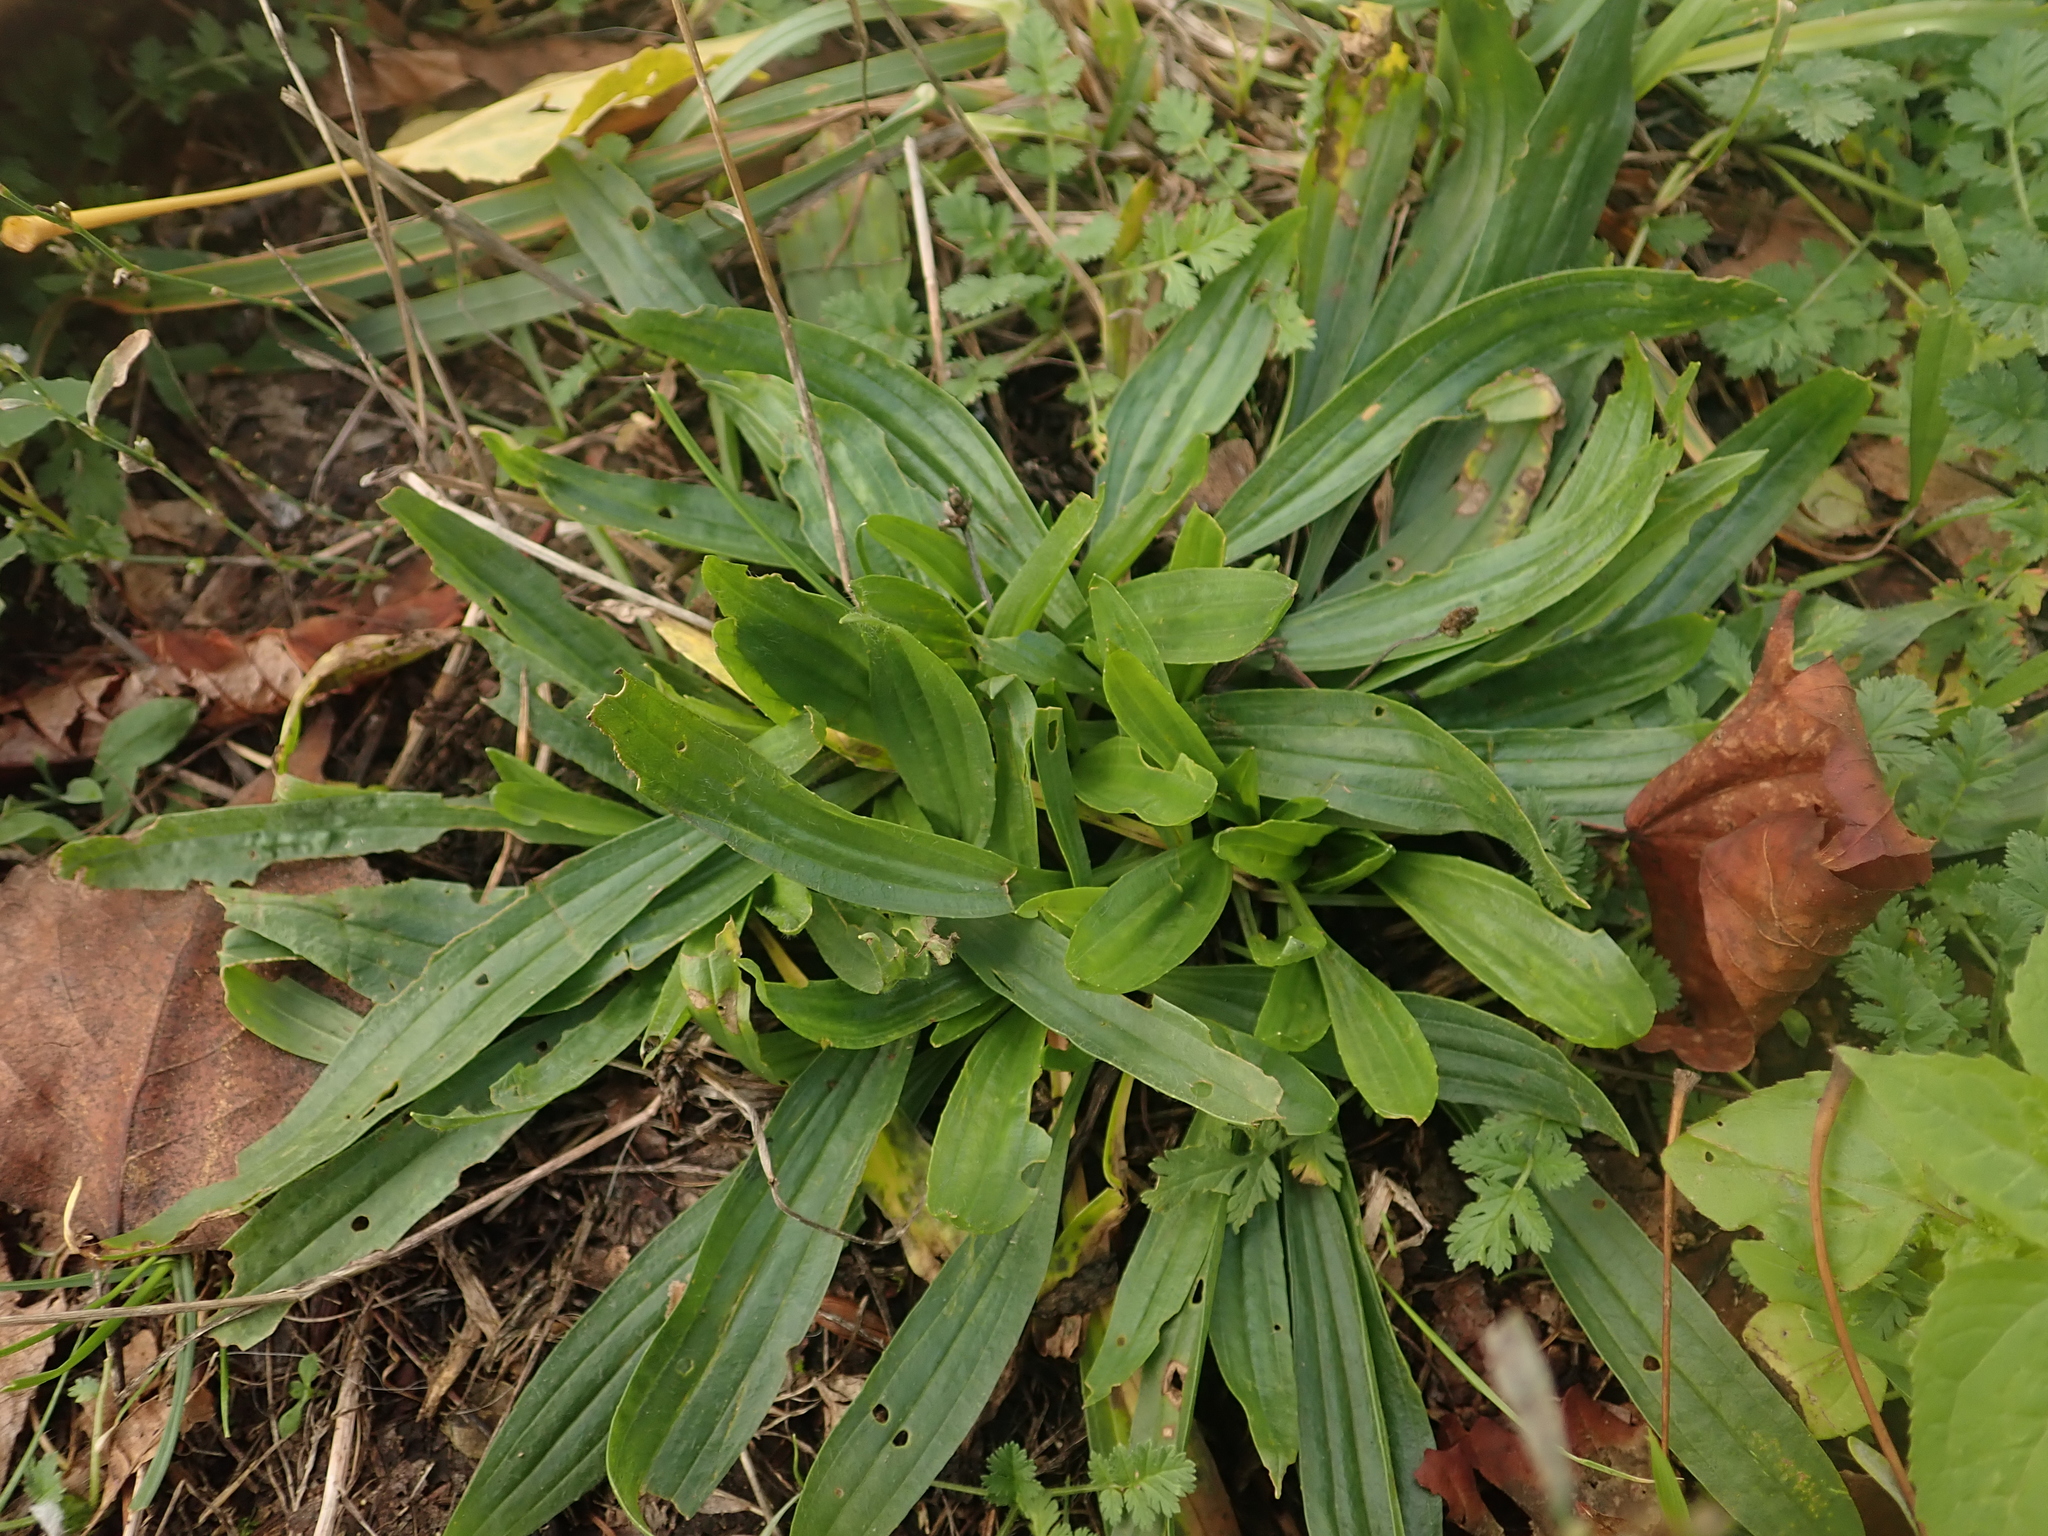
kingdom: Plantae
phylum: Tracheophyta
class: Magnoliopsida
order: Lamiales
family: Plantaginaceae
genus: Plantago
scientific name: Plantago lanceolata
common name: Ribwort plantain
